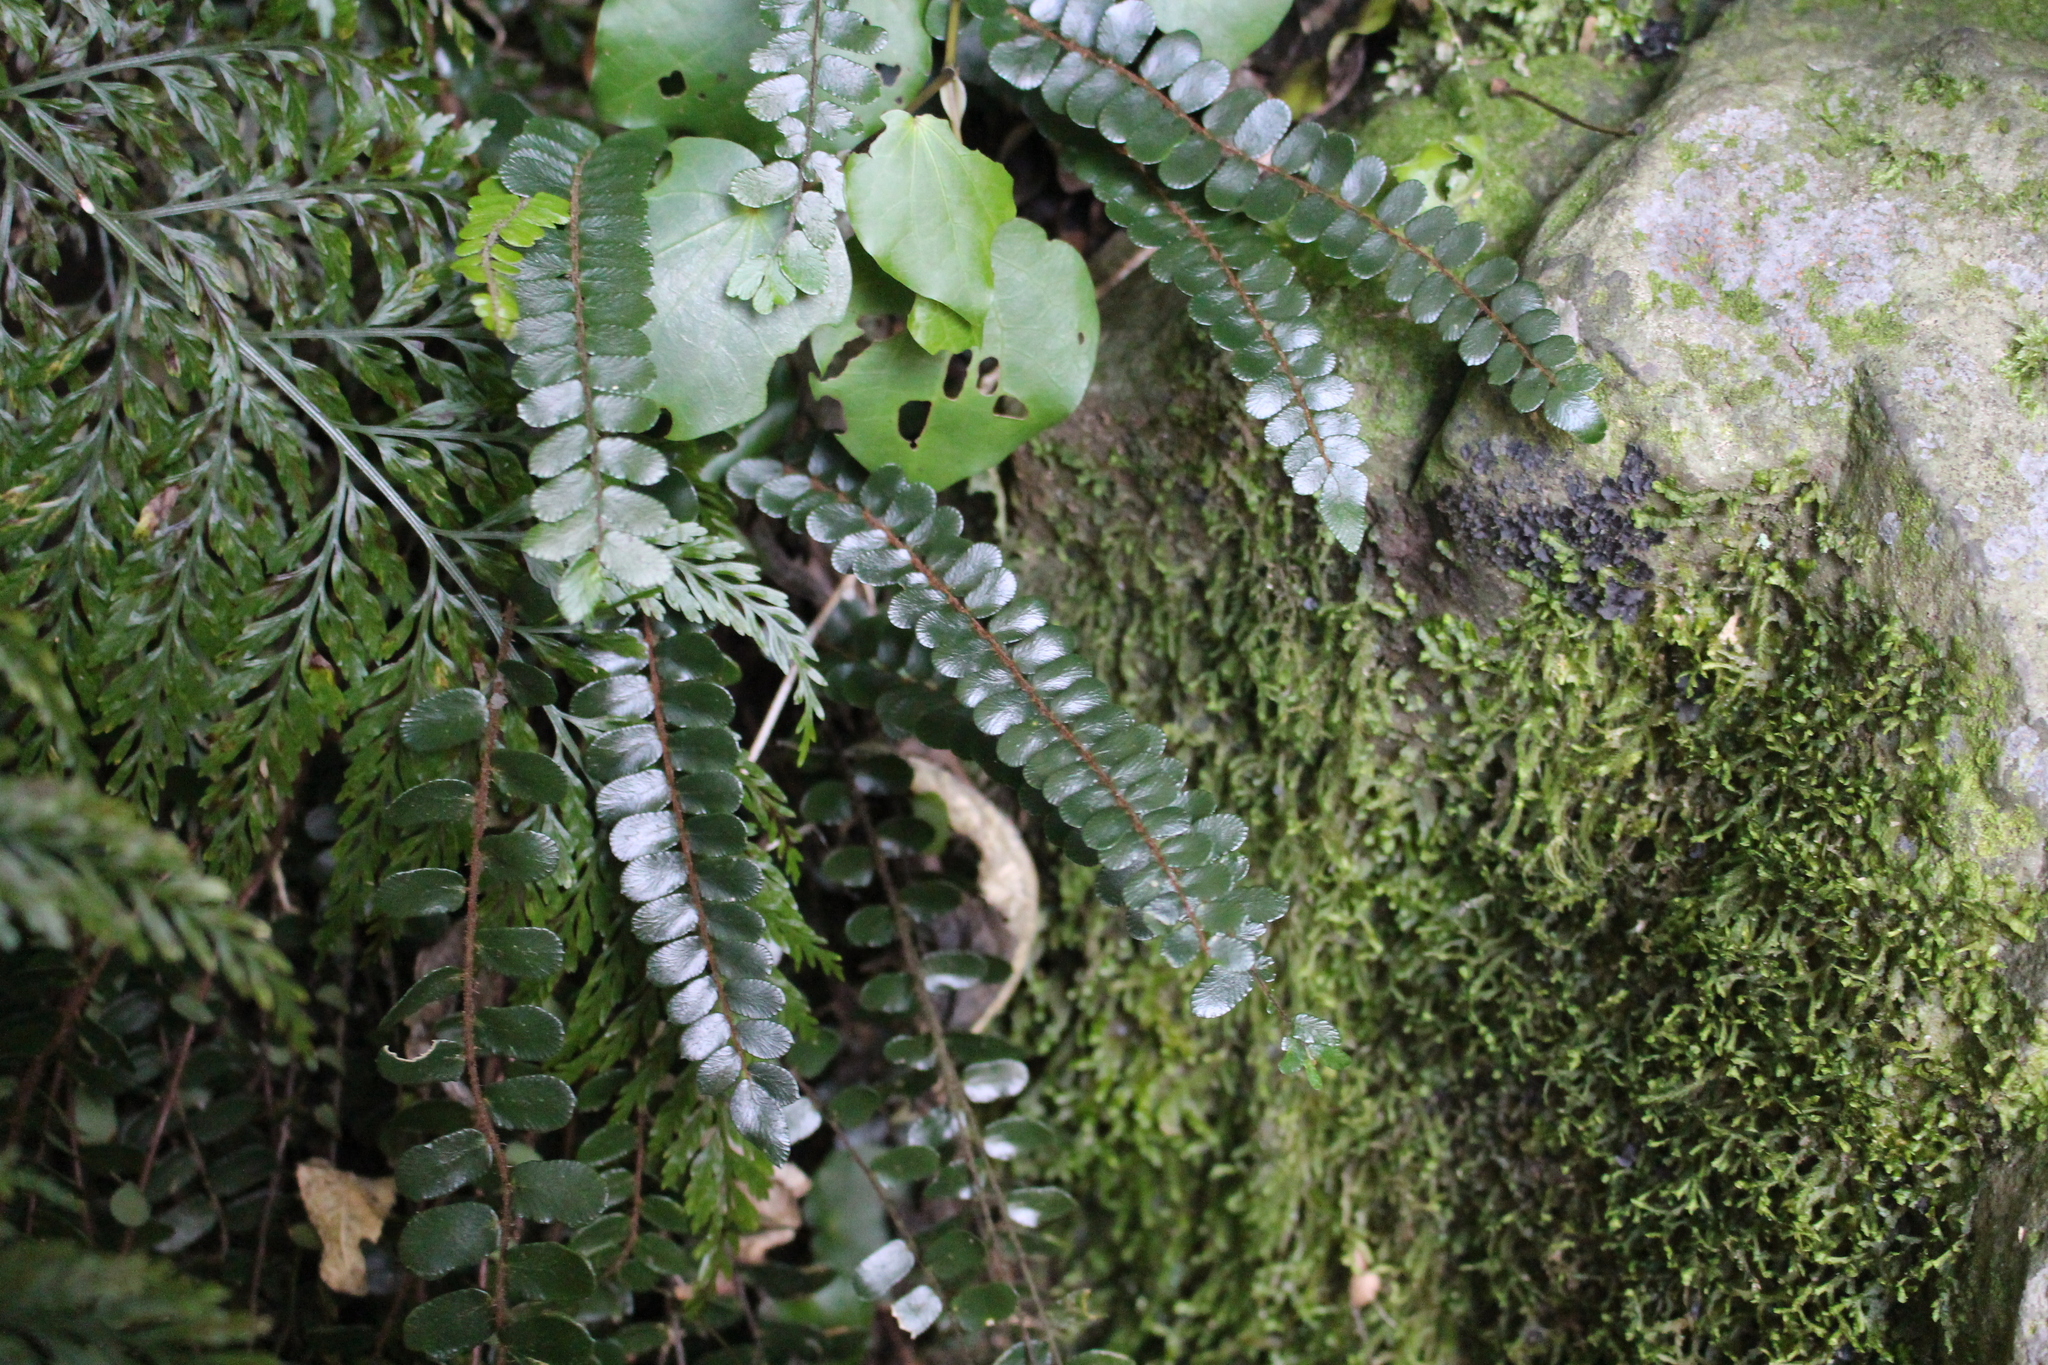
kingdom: Plantae
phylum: Tracheophyta
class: Polypodiopsida
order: Polypodiales
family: Pteridaceae
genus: Pellaea
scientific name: Pellaea rotundifolia
